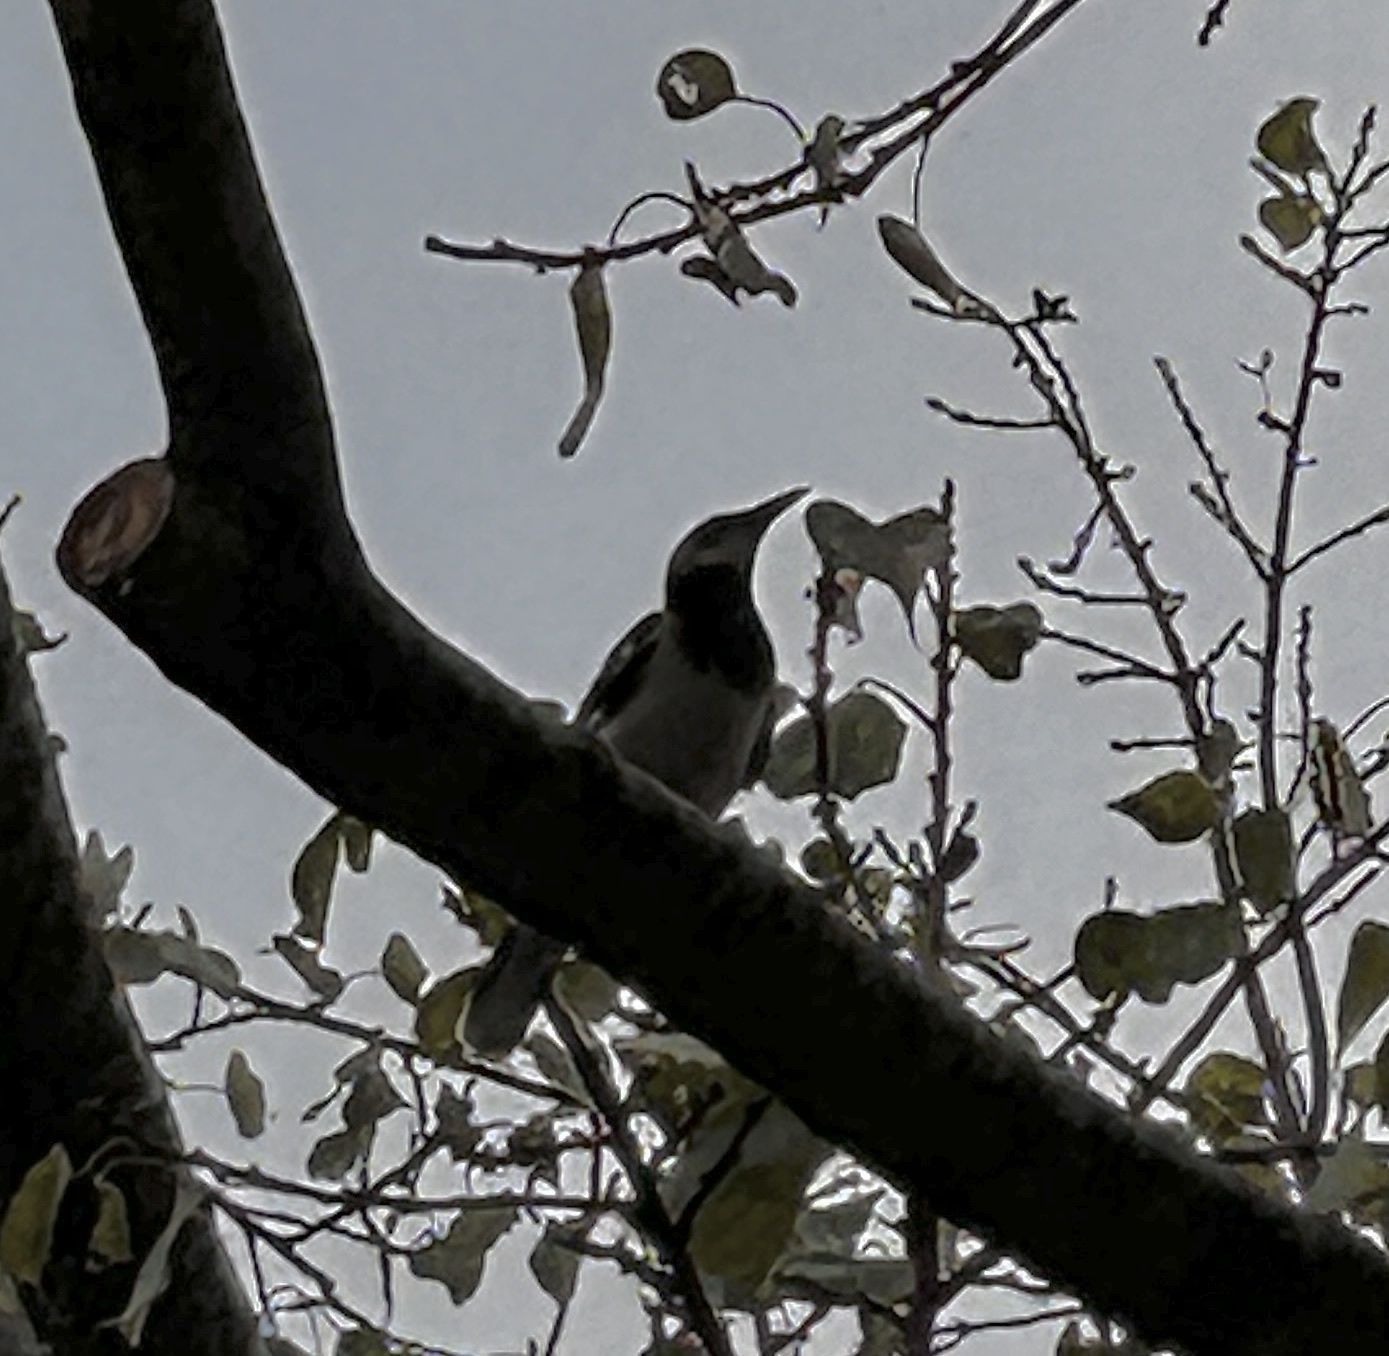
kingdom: Animalia
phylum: Chordata
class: Aves
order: Passeriformes
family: Sturnidae
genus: Gracupica
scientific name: Gracupica nigricollis
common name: Black-collared starling
